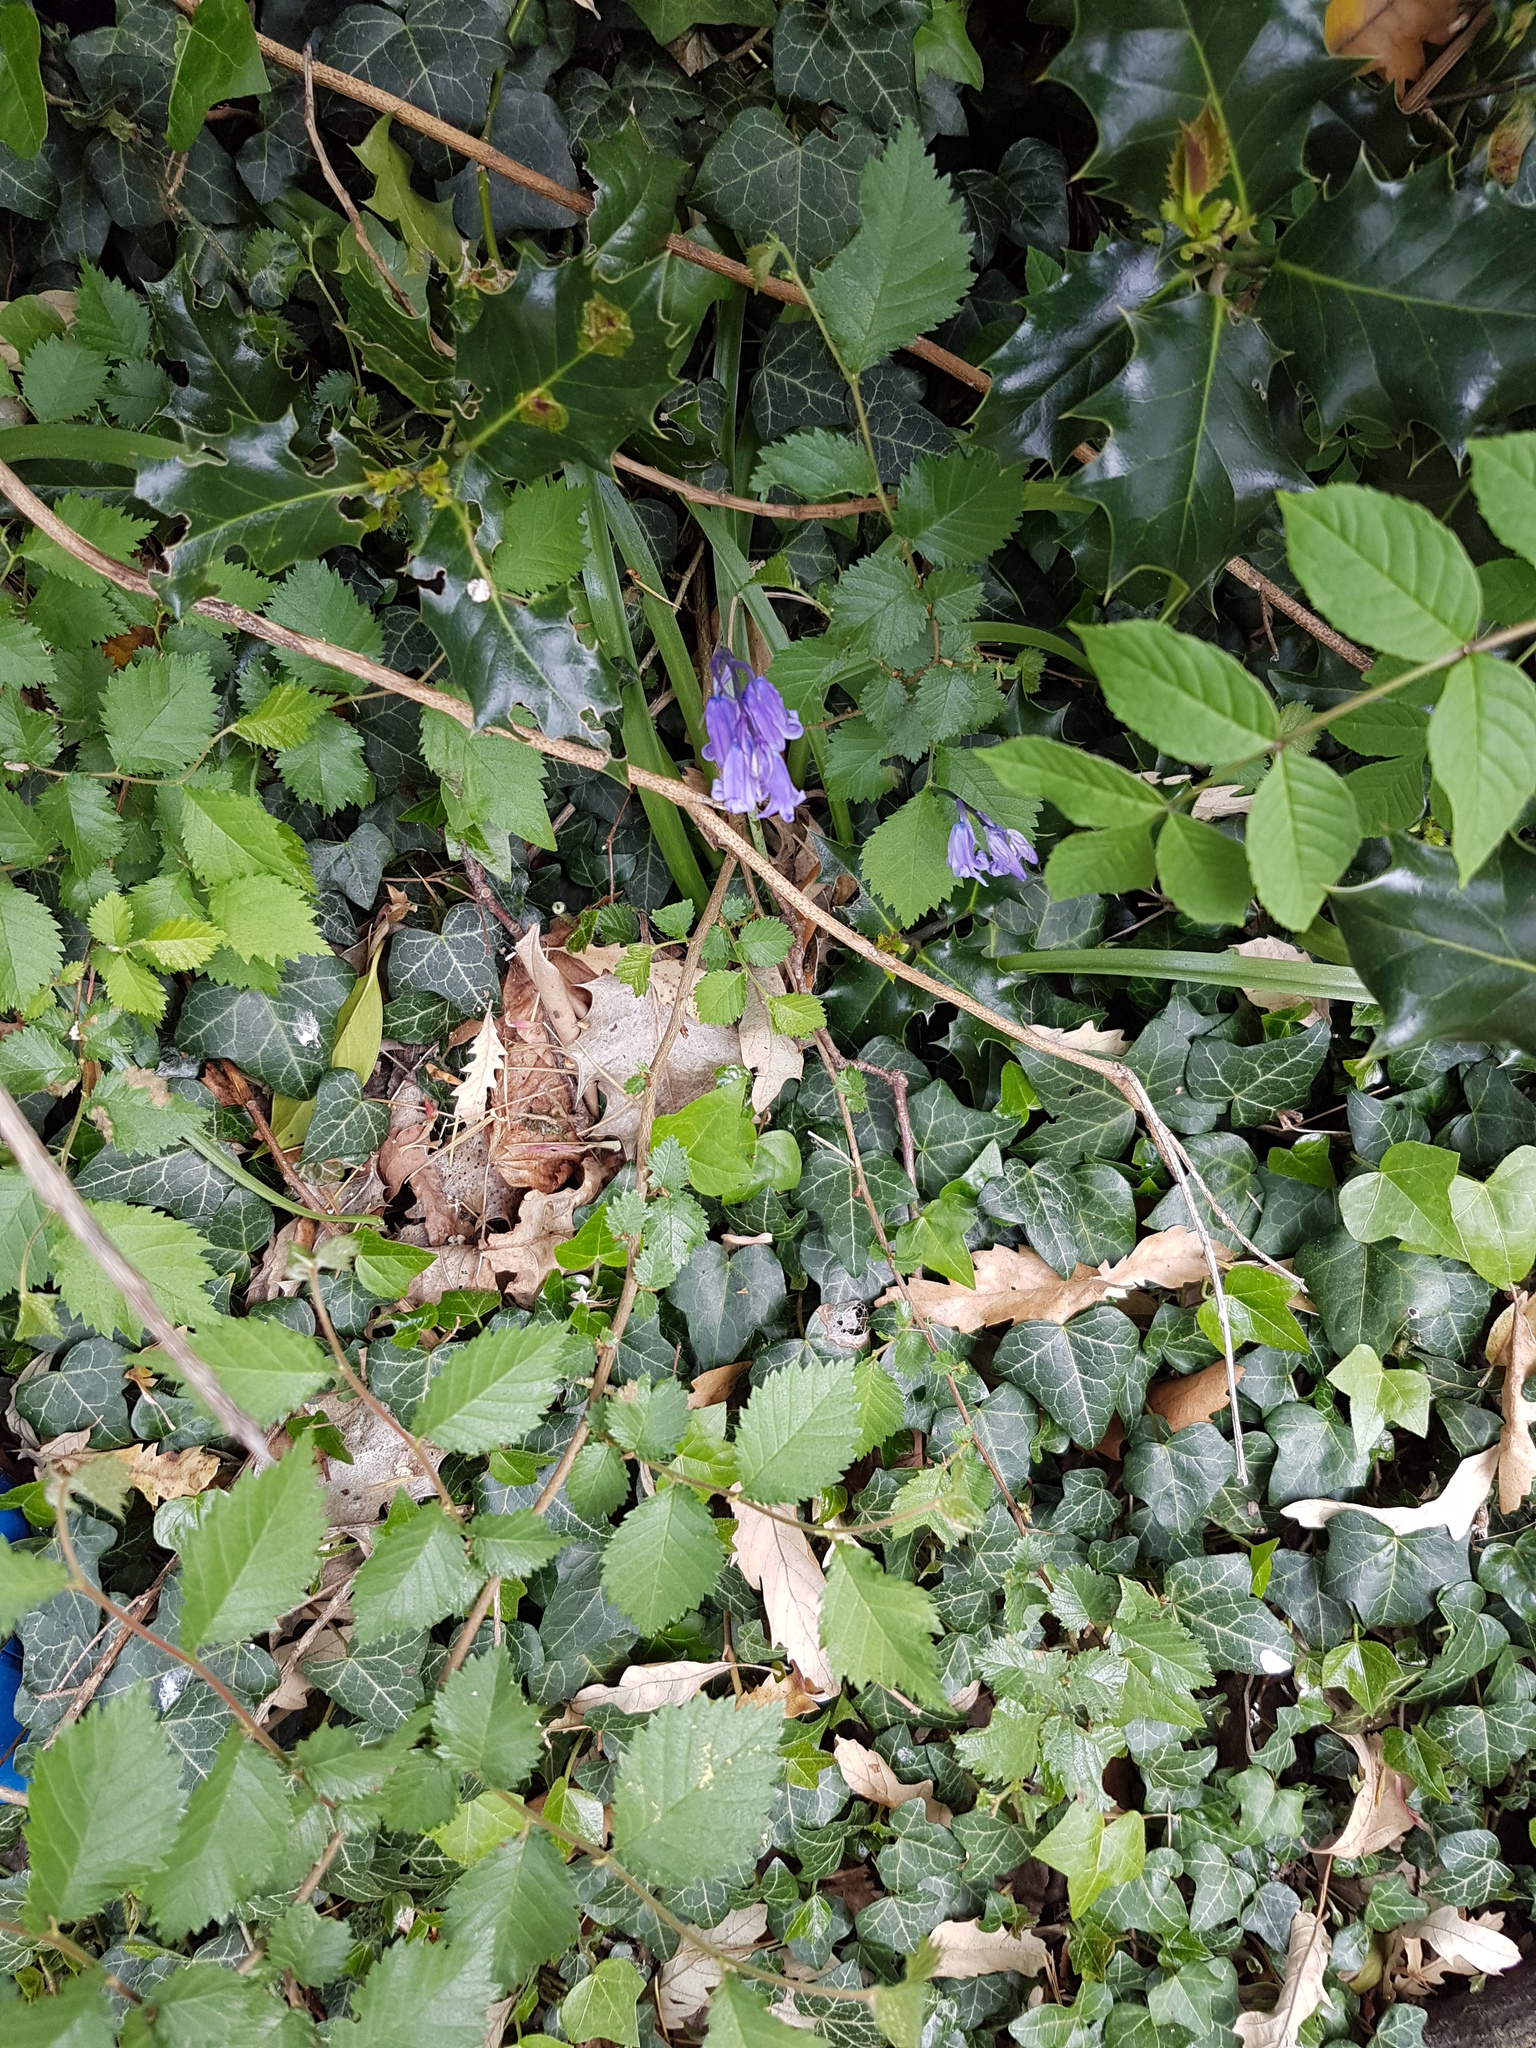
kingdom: Plantae
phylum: Tracheophyta
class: Liliopsida
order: Asparagales
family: Asparagaceae
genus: Hyacinthoides
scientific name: Hyacinthoides non-scripta
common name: Bluebell
